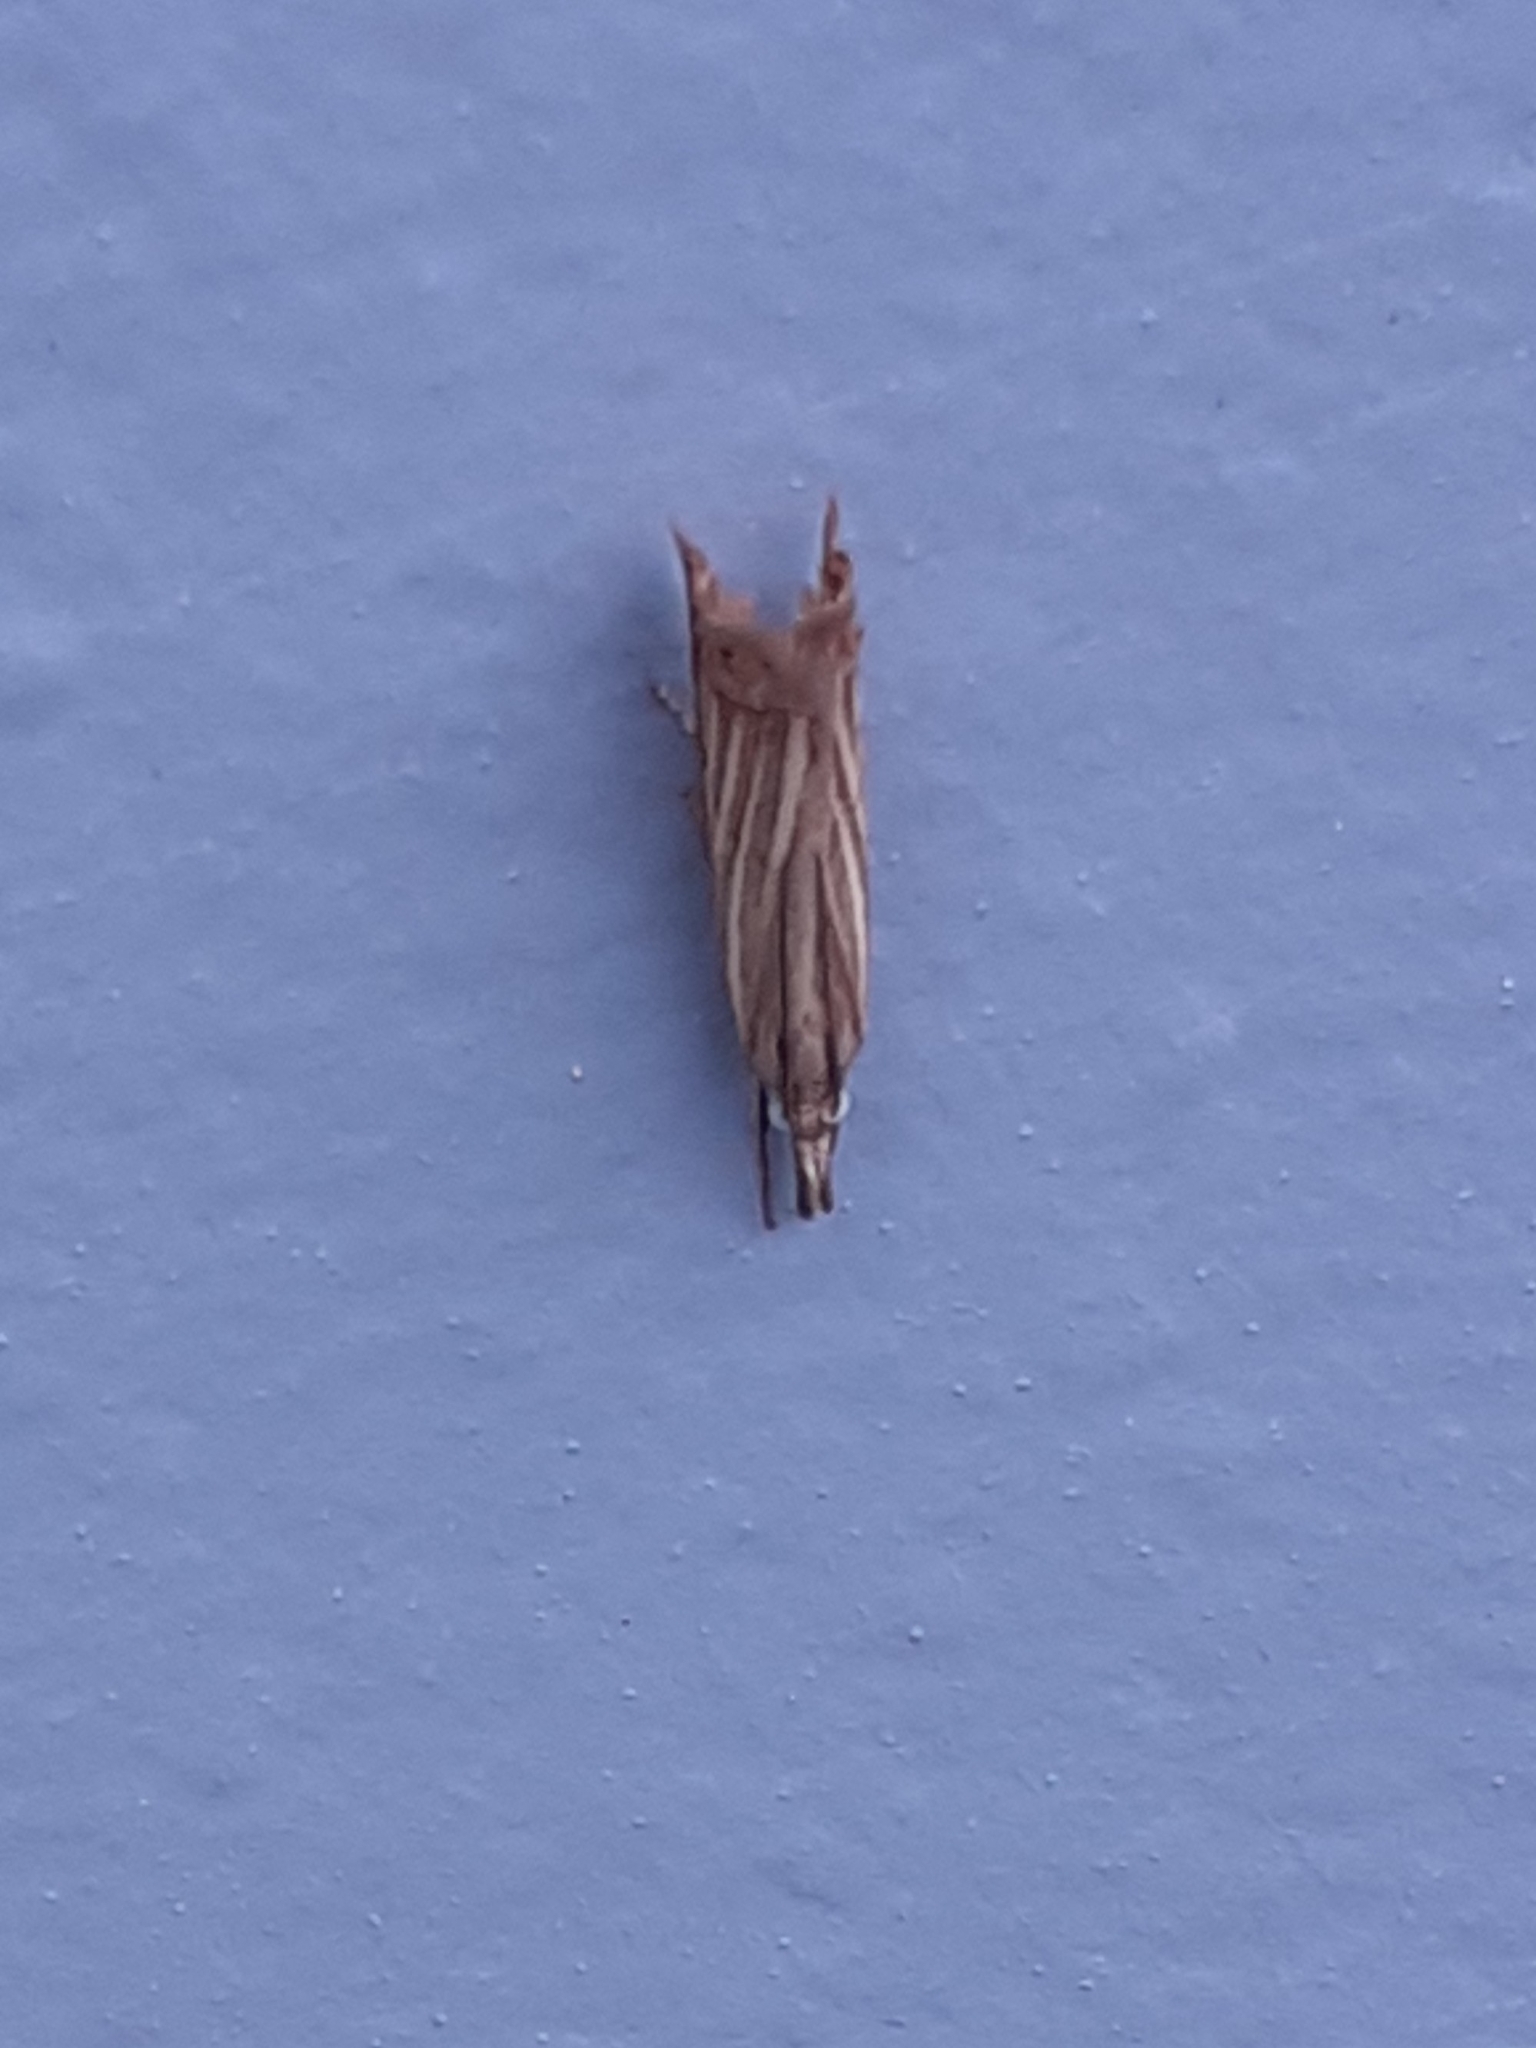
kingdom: Animalia
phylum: Arthropoda
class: Insecta
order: Lepidoptera
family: Crambidae
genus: Chrysoteuchia
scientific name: Chrysoteuchia culmella
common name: Garden grass-veneer
